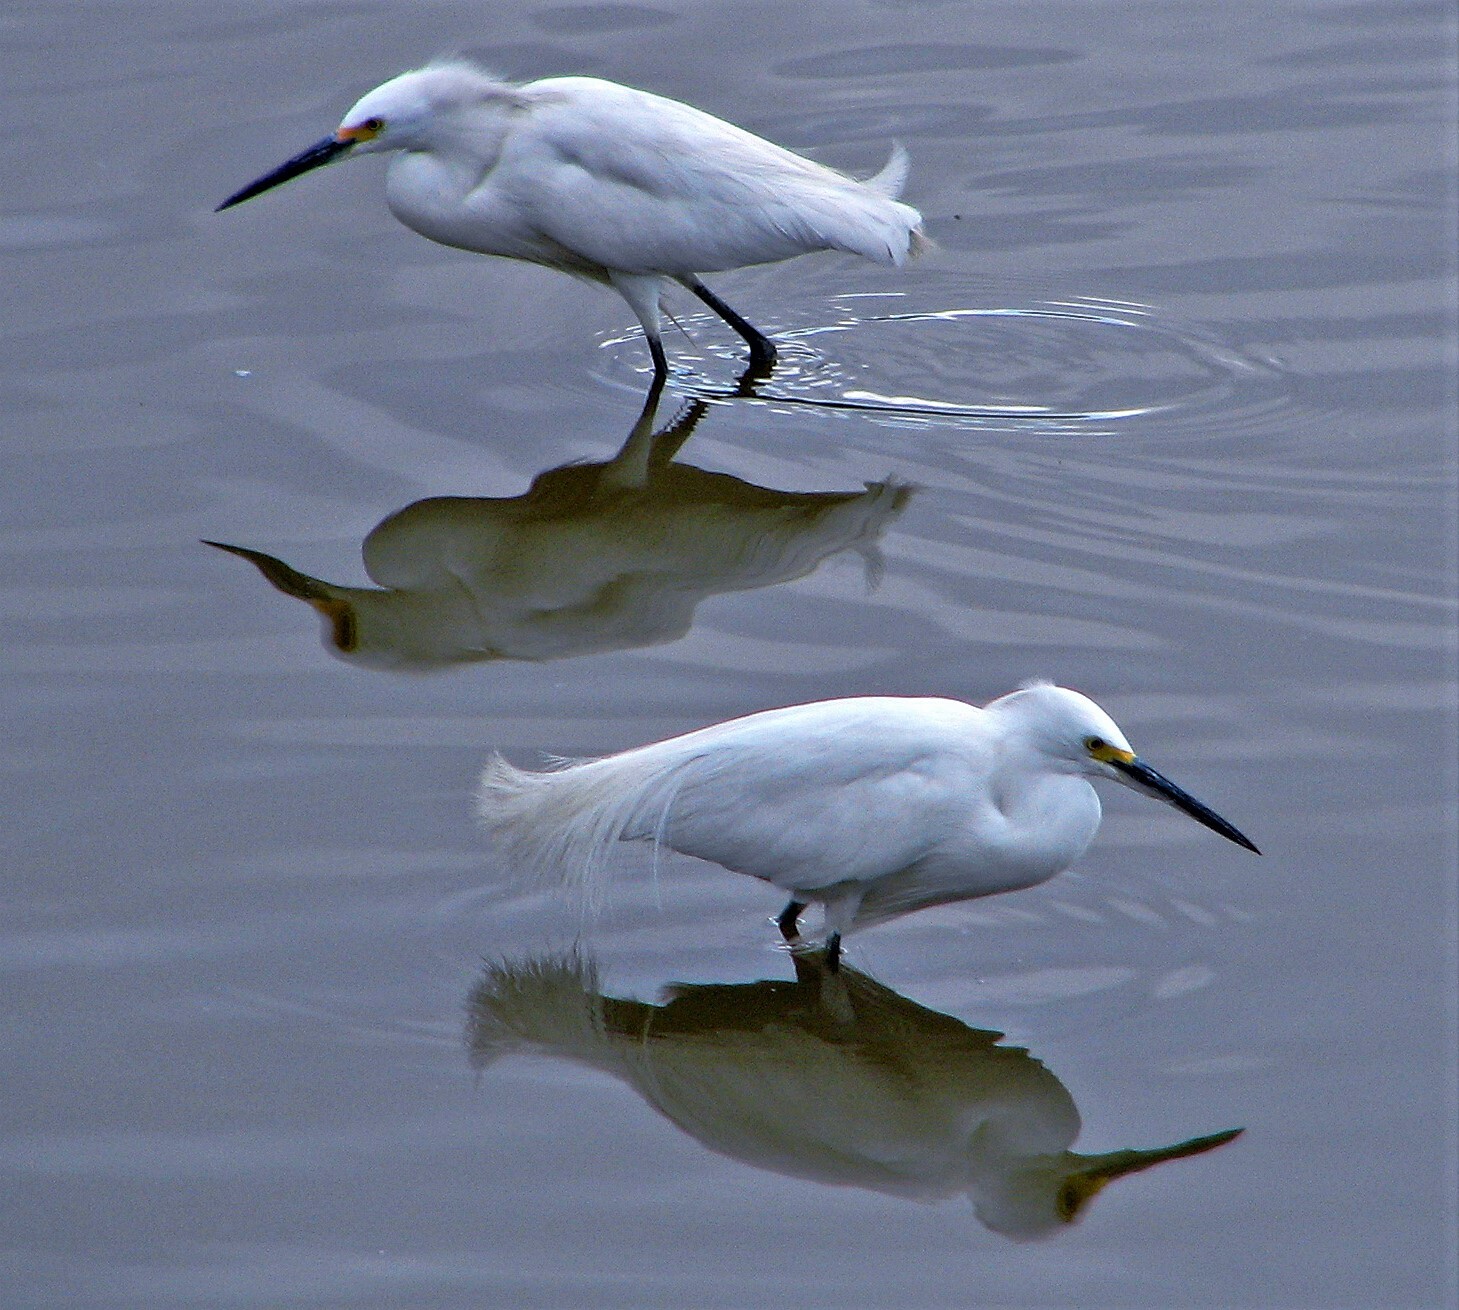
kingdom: Animalia
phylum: Chordata
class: Aves
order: Pelecaniformes
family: Ardeidae
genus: Egretta
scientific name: Egretta thula
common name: Snowy egret
